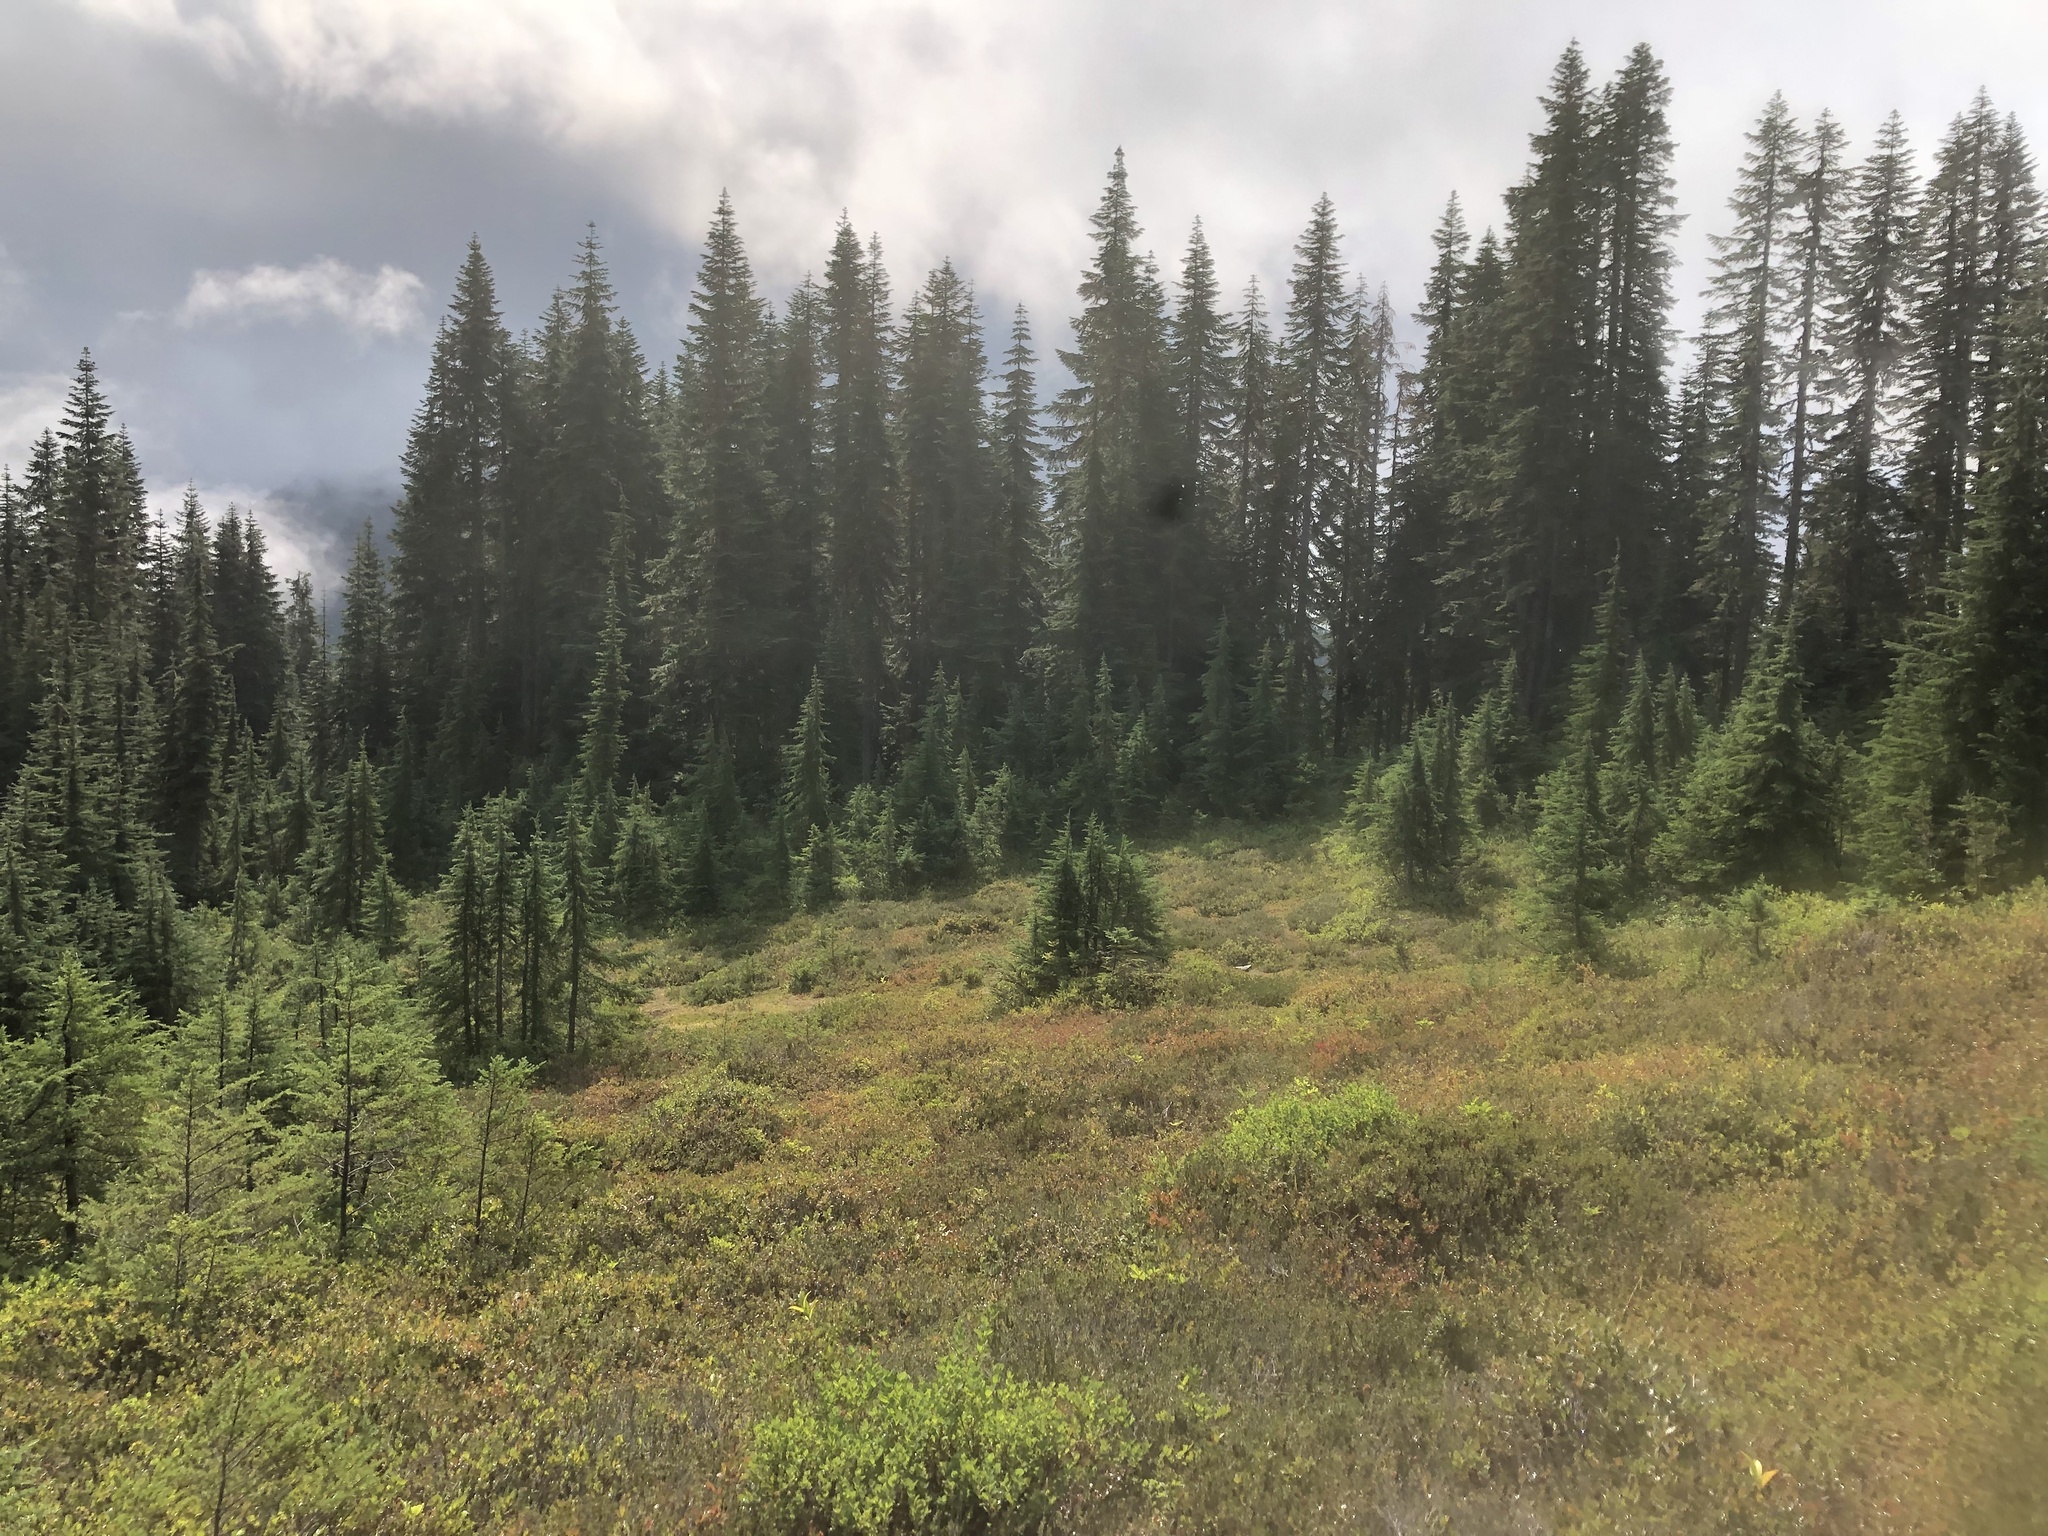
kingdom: Plantae
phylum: Tracheophyta
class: Pinopsida
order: Pinales
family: Pinaceae
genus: Tsuga
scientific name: Tsuga mertensiana
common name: Mountain hemlock
